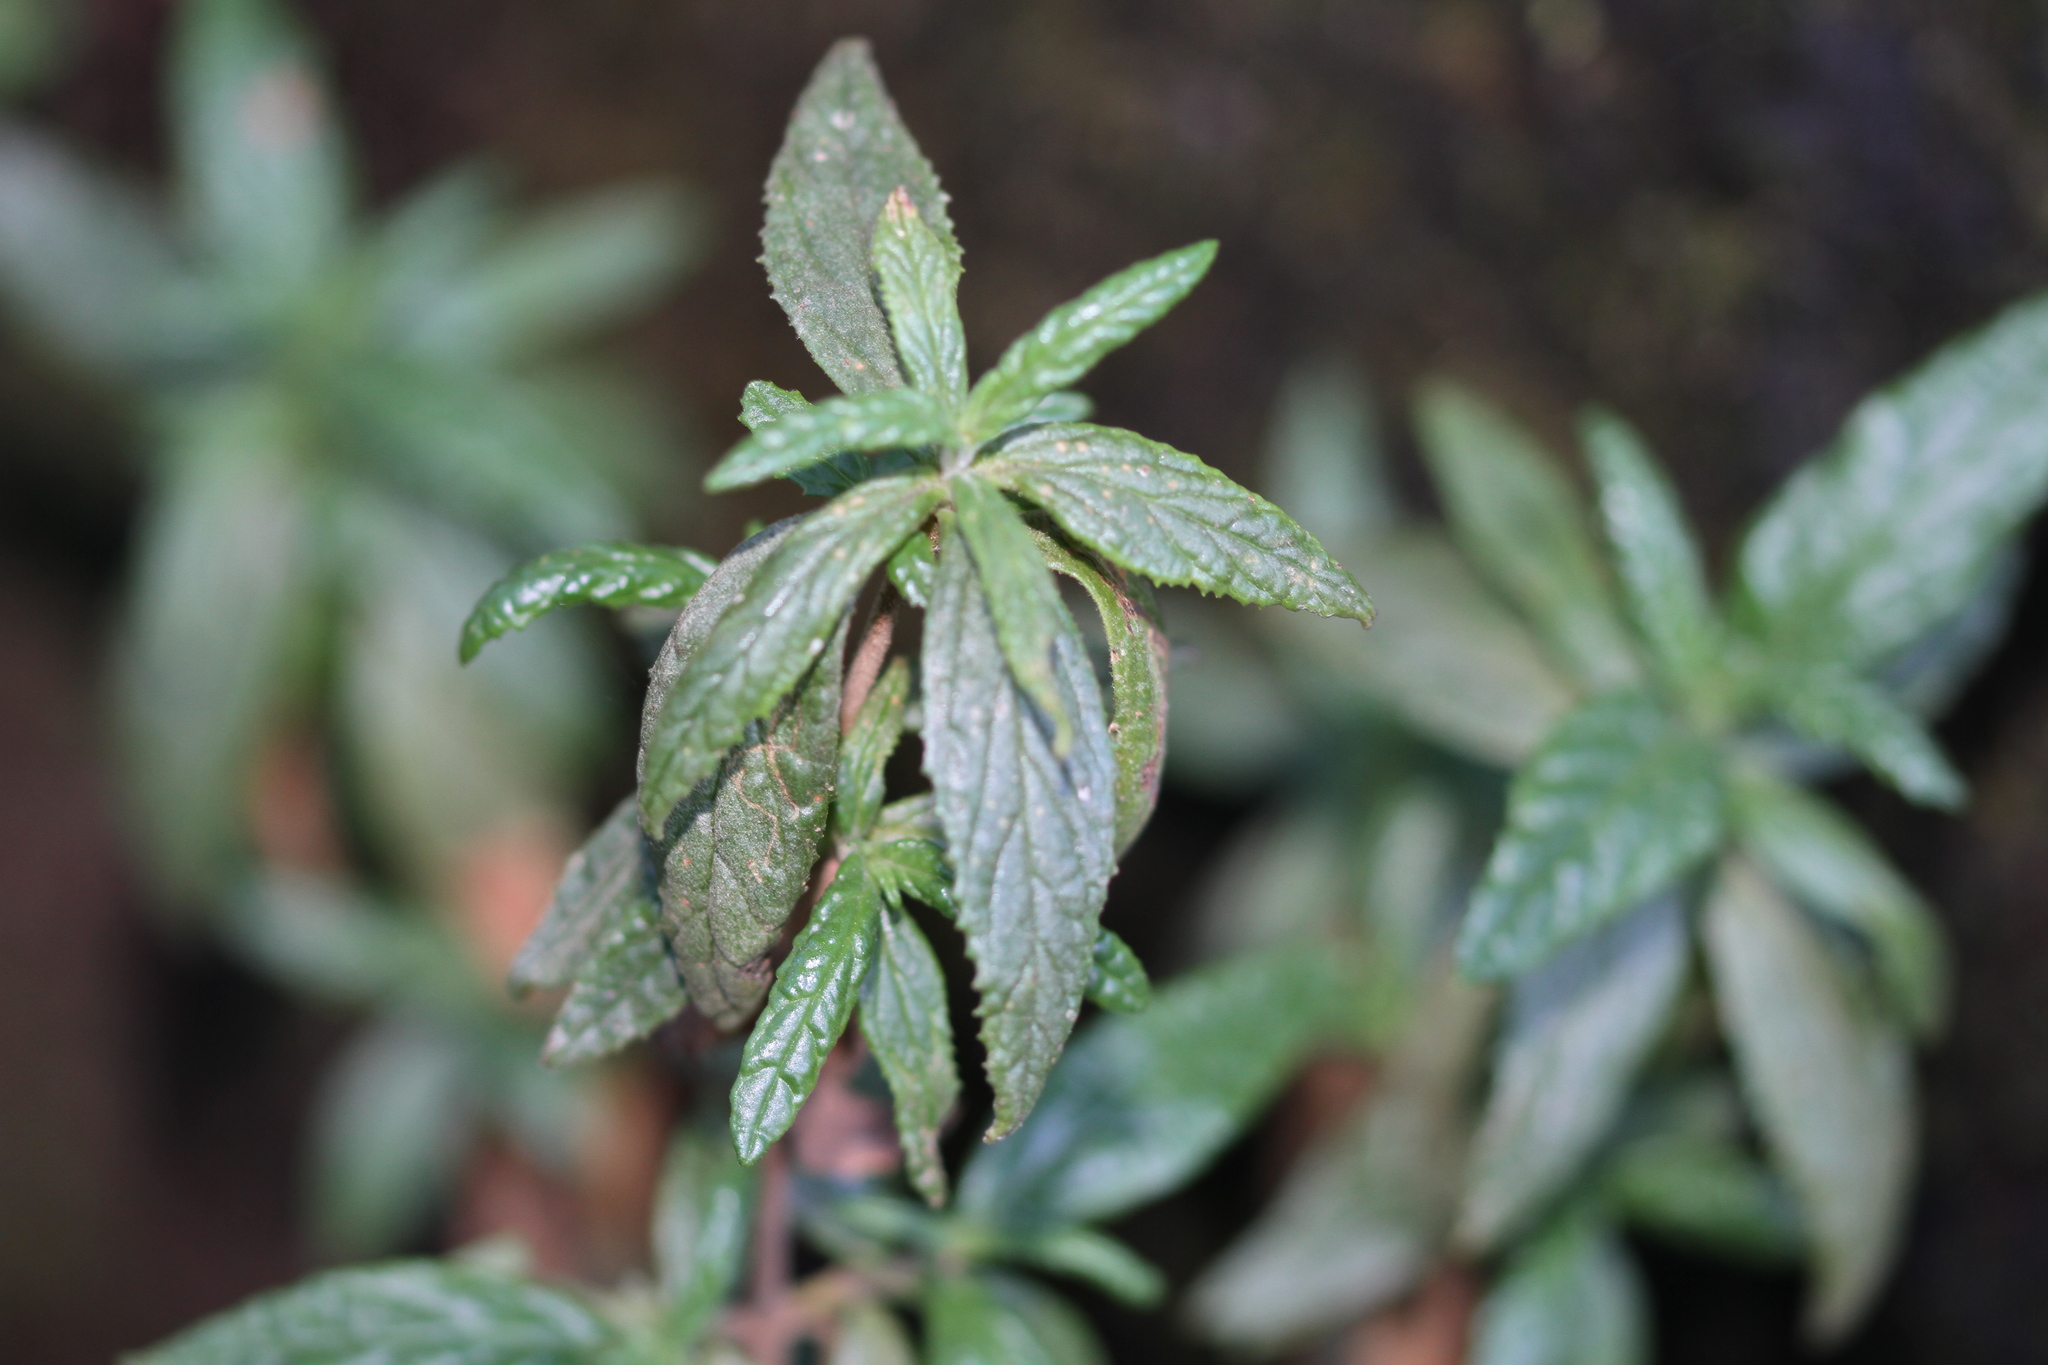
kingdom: Plantae
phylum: Tracheophyta
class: Magnoliopsida
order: Lamiales
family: Phrymaceae
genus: Diplacus
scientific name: Diplacus aurantiacus
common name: Bush monkey-flower
